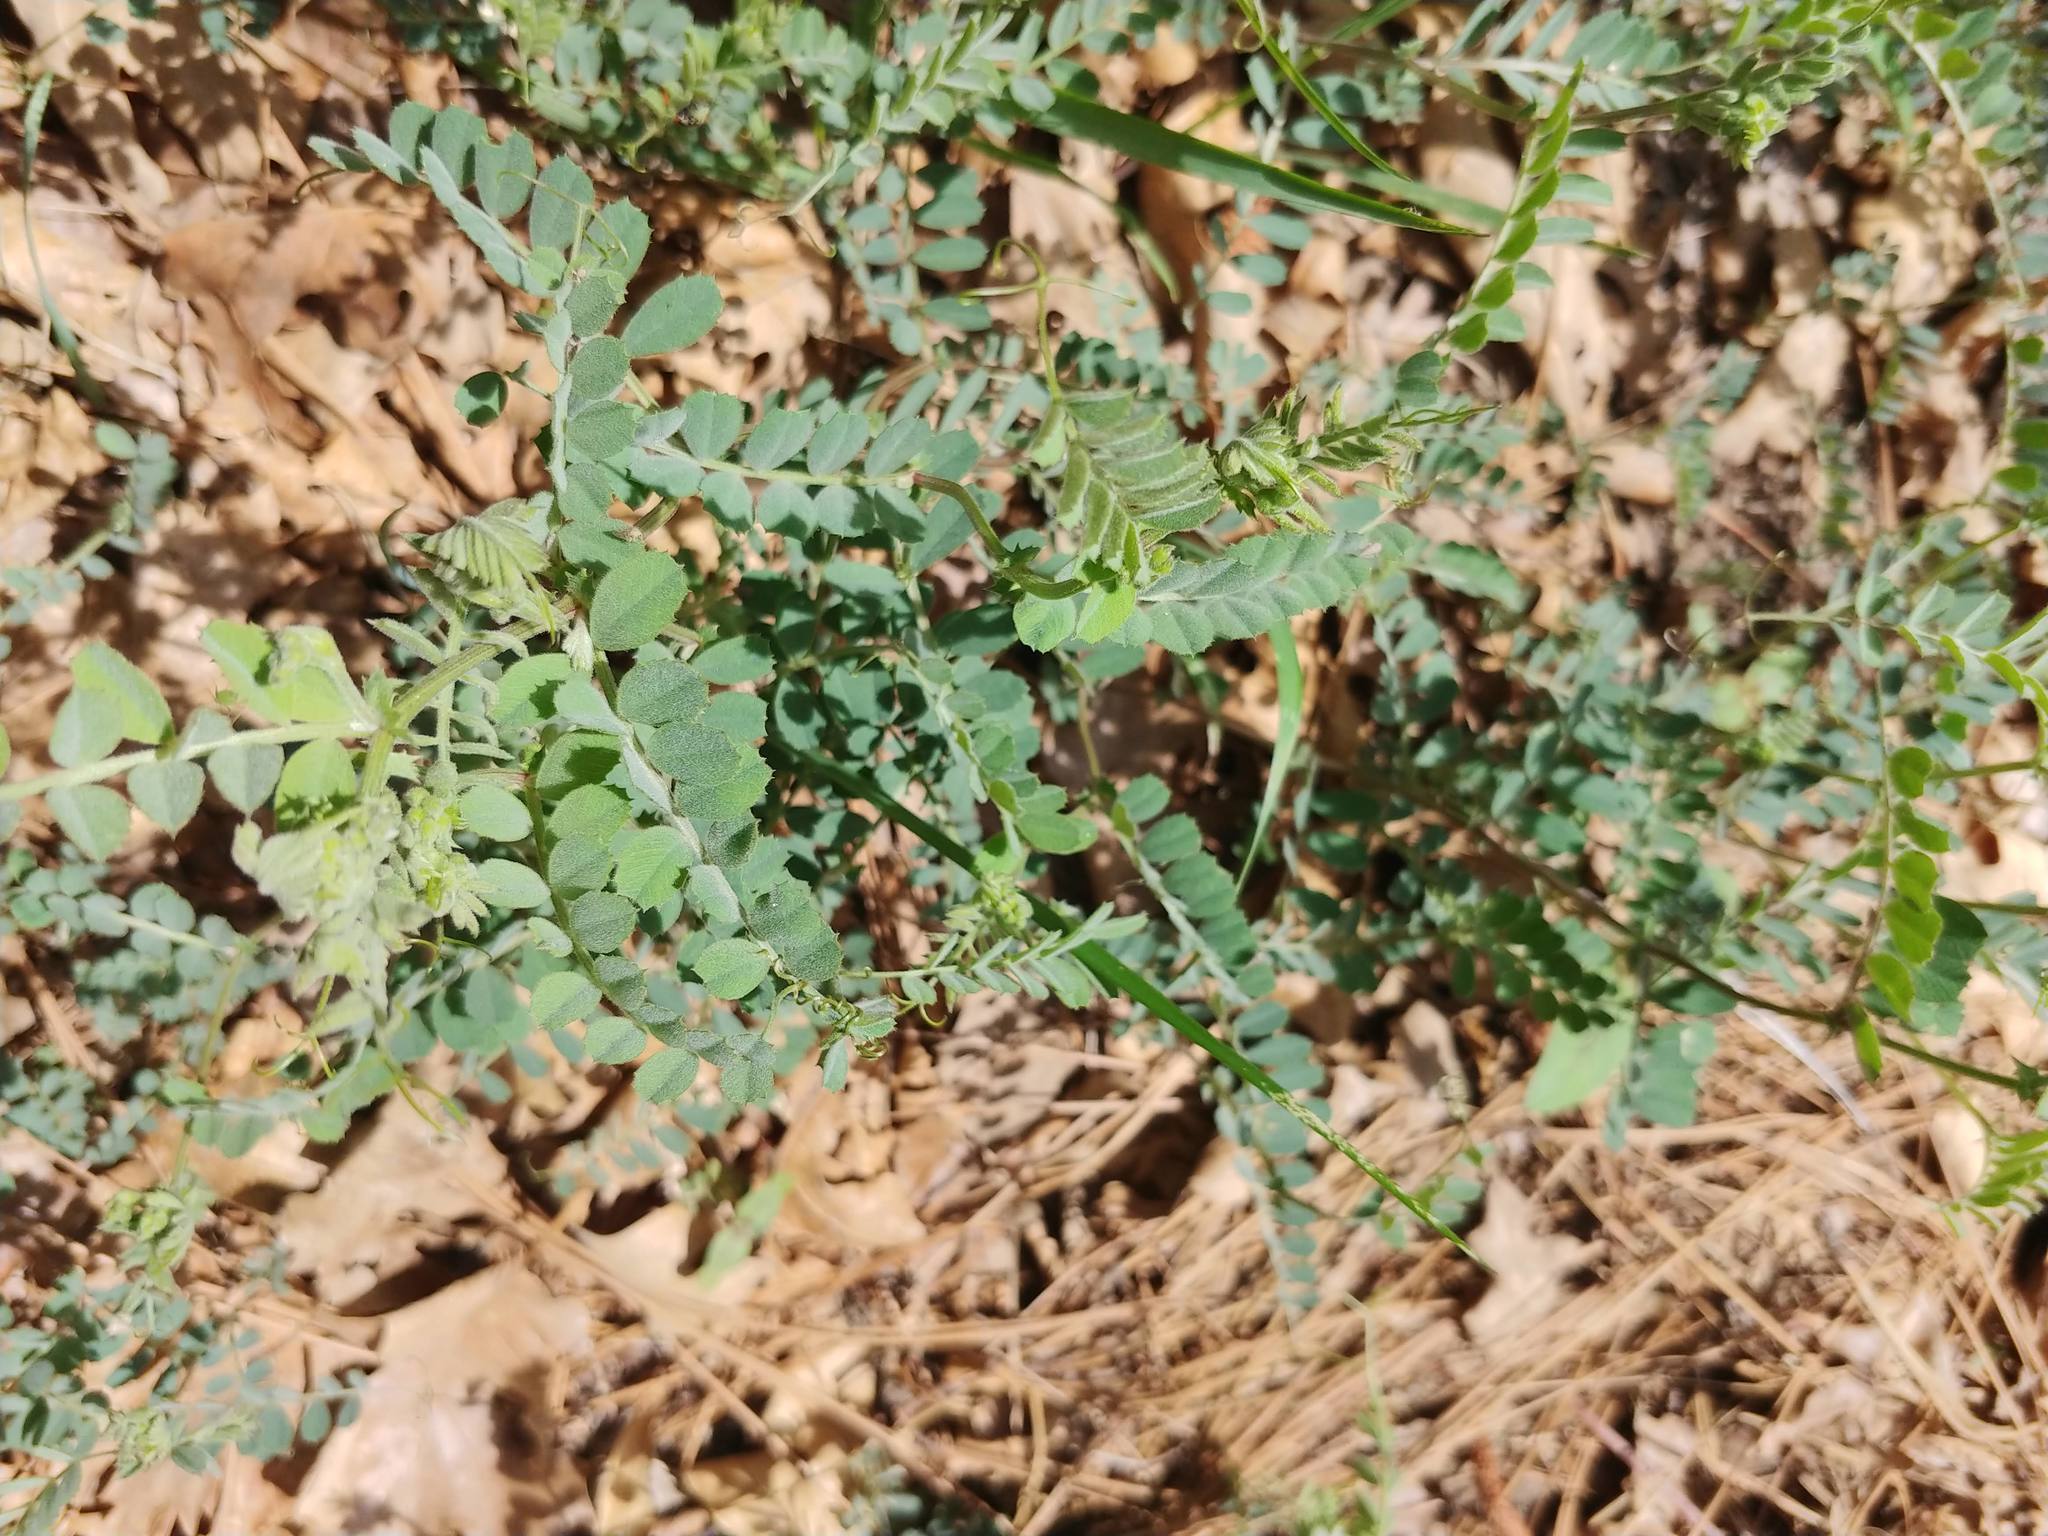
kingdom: Plantae
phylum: Tracheophyta
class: Magnoliopsida
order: Fabales
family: Fabaceae
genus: Vicia
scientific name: Vicia americana
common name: American vetch
